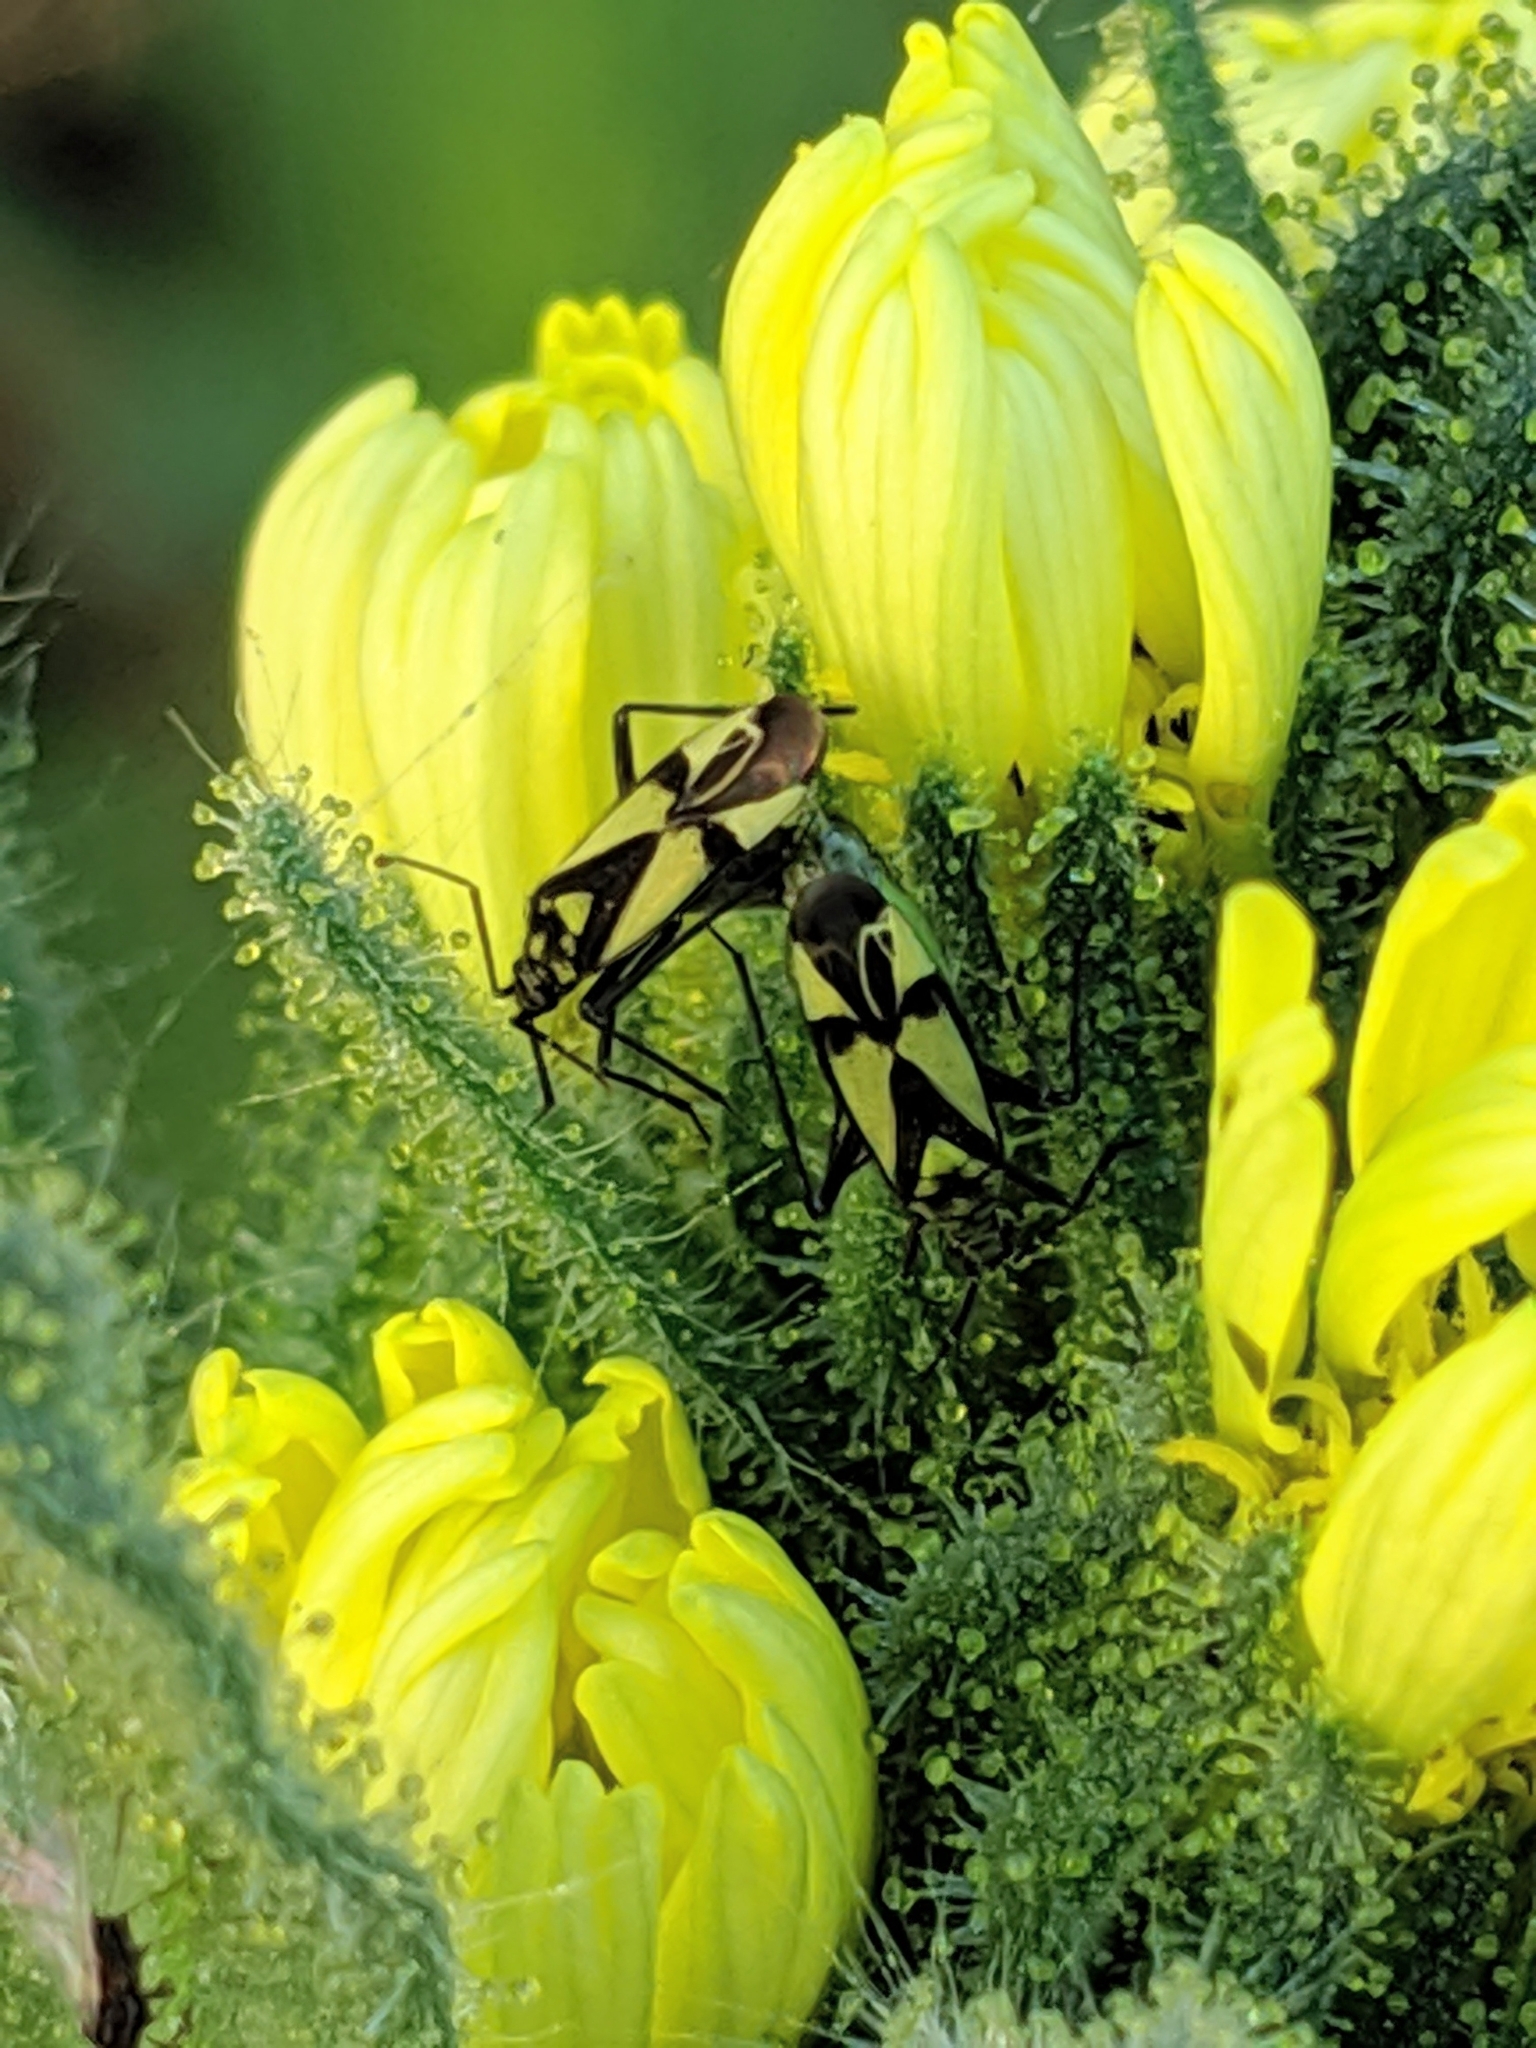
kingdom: Animalia
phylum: Arthropoda
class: Insecta
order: Hemiptera
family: Miridae
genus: Macrotylus
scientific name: Macrotylus essigi
